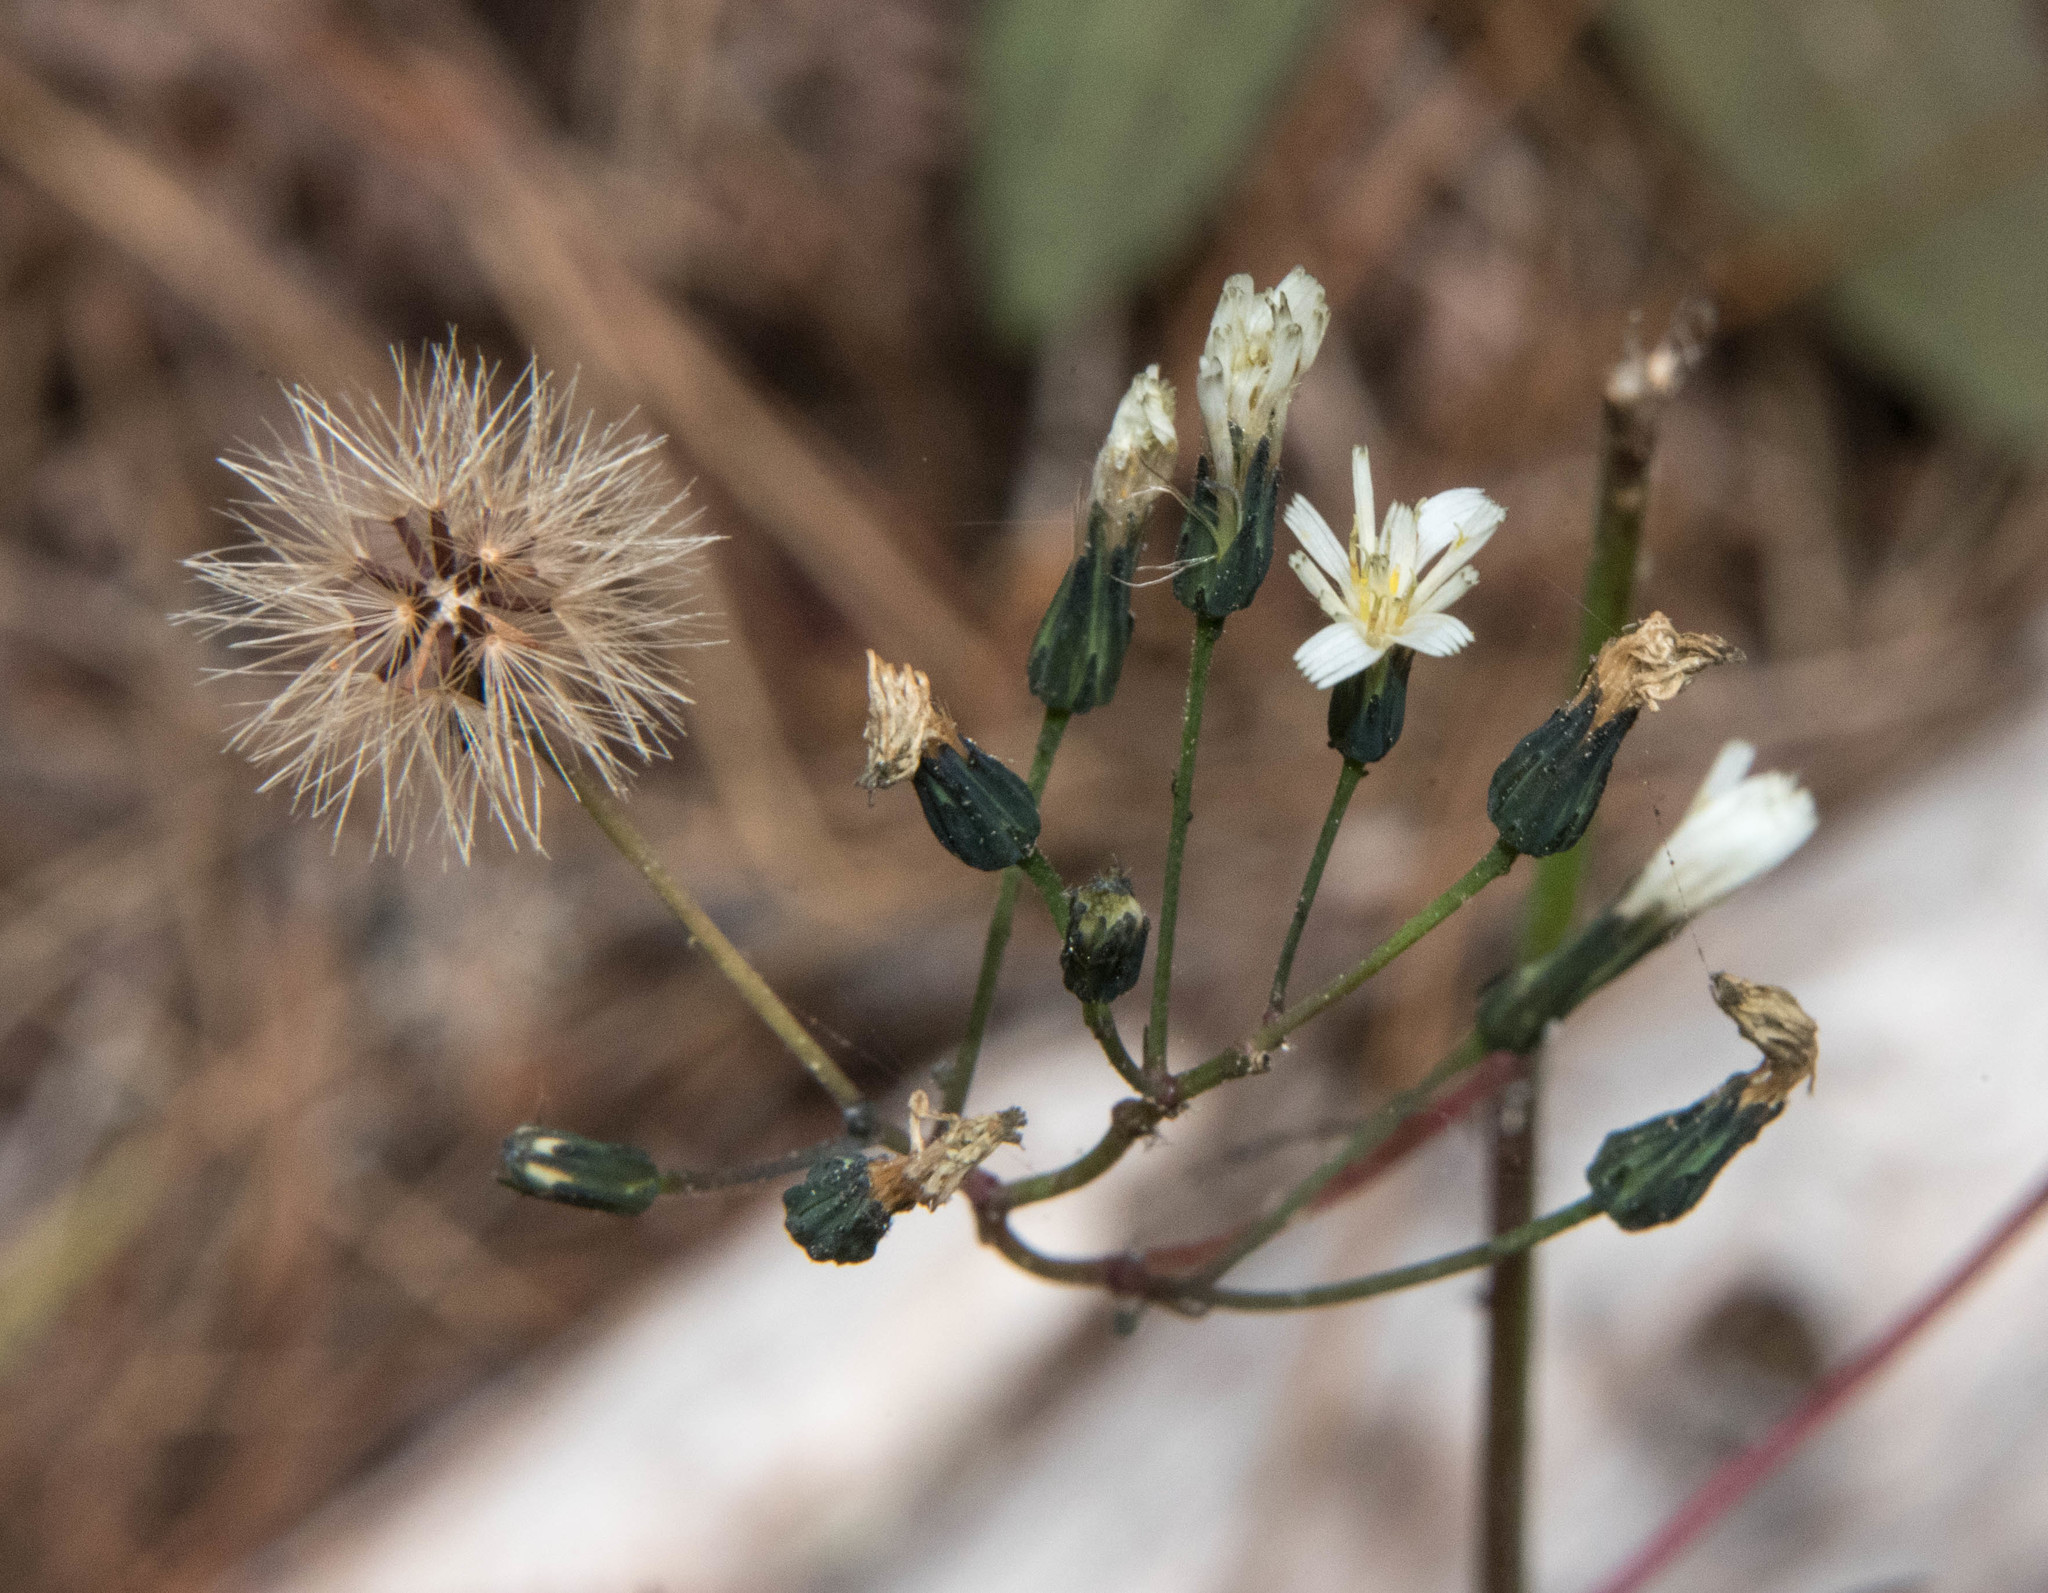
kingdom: Plantae
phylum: Tracheophyta
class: Magnoliopsida
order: Asterales
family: Asteraceae
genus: Hieracium
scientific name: Hieracium albiflorum
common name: White hawkweed
